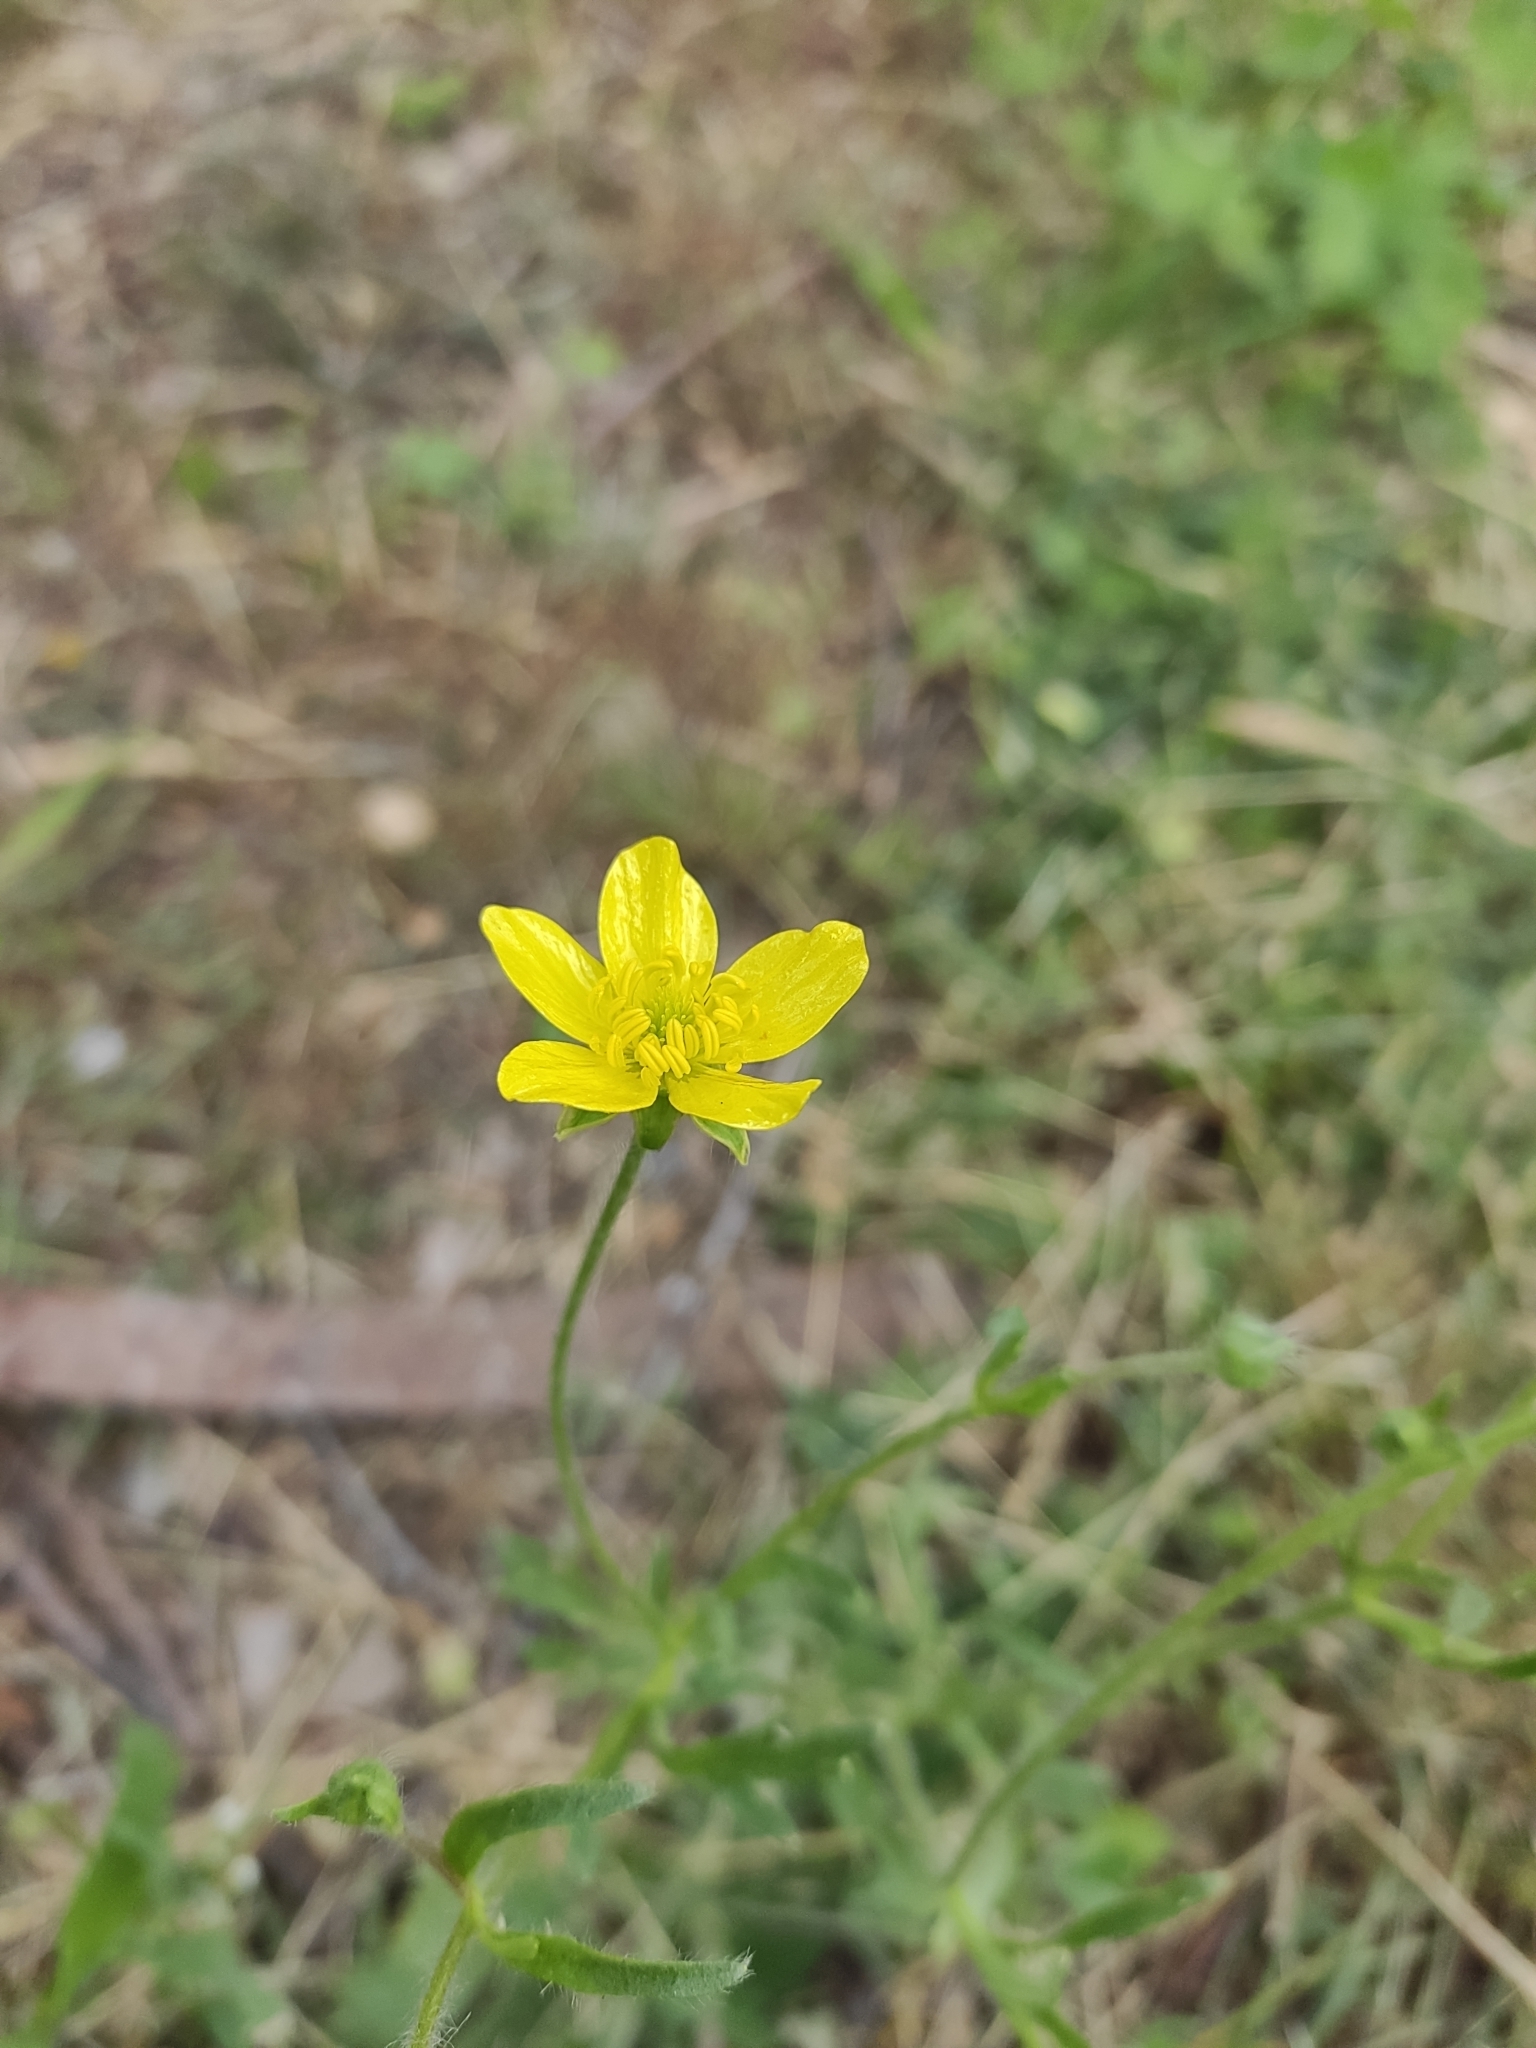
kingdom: Plantae
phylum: Tracheophyta
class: Magnoliopsida
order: Ranunculales
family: Ranunculaceae
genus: Ranunculus
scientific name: Ranunculus oxyspermus
